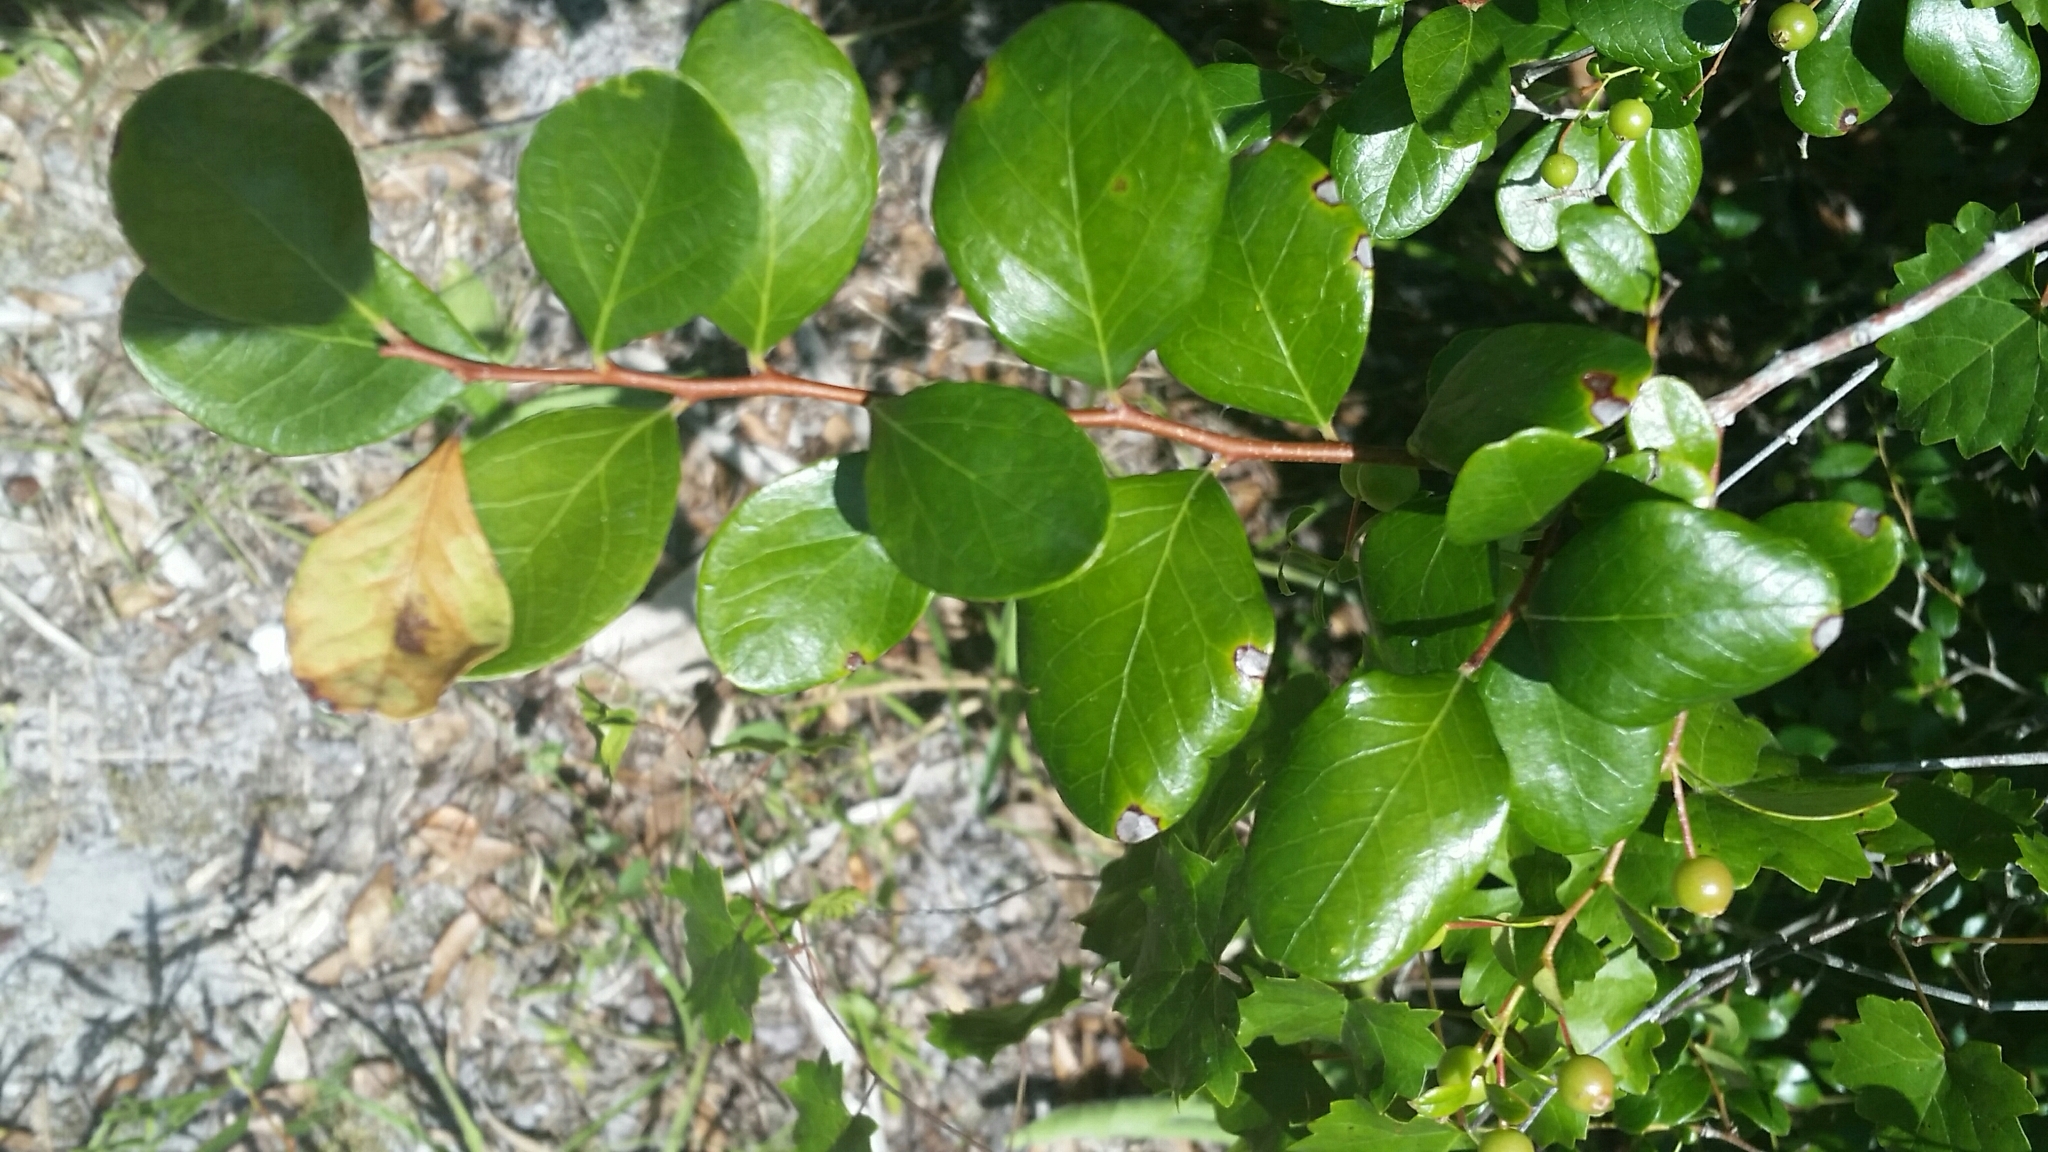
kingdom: Plantae
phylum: Tracheophyta
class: Magnoliopsida
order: Ericales
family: Ericaceae
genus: Vaccinium
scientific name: Vaccinium arboreum
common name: Farkleberry
